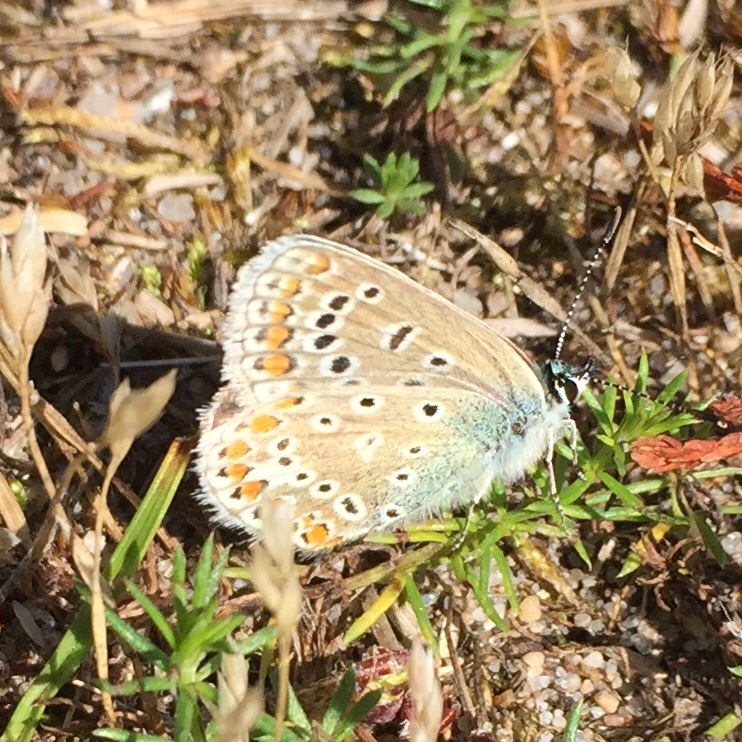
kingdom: Animalia
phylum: Arthropoda
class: Insecta
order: Lepidoptera
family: Lycaenidae
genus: Polyommatus
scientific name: Polyommatus icarus
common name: Common blue
